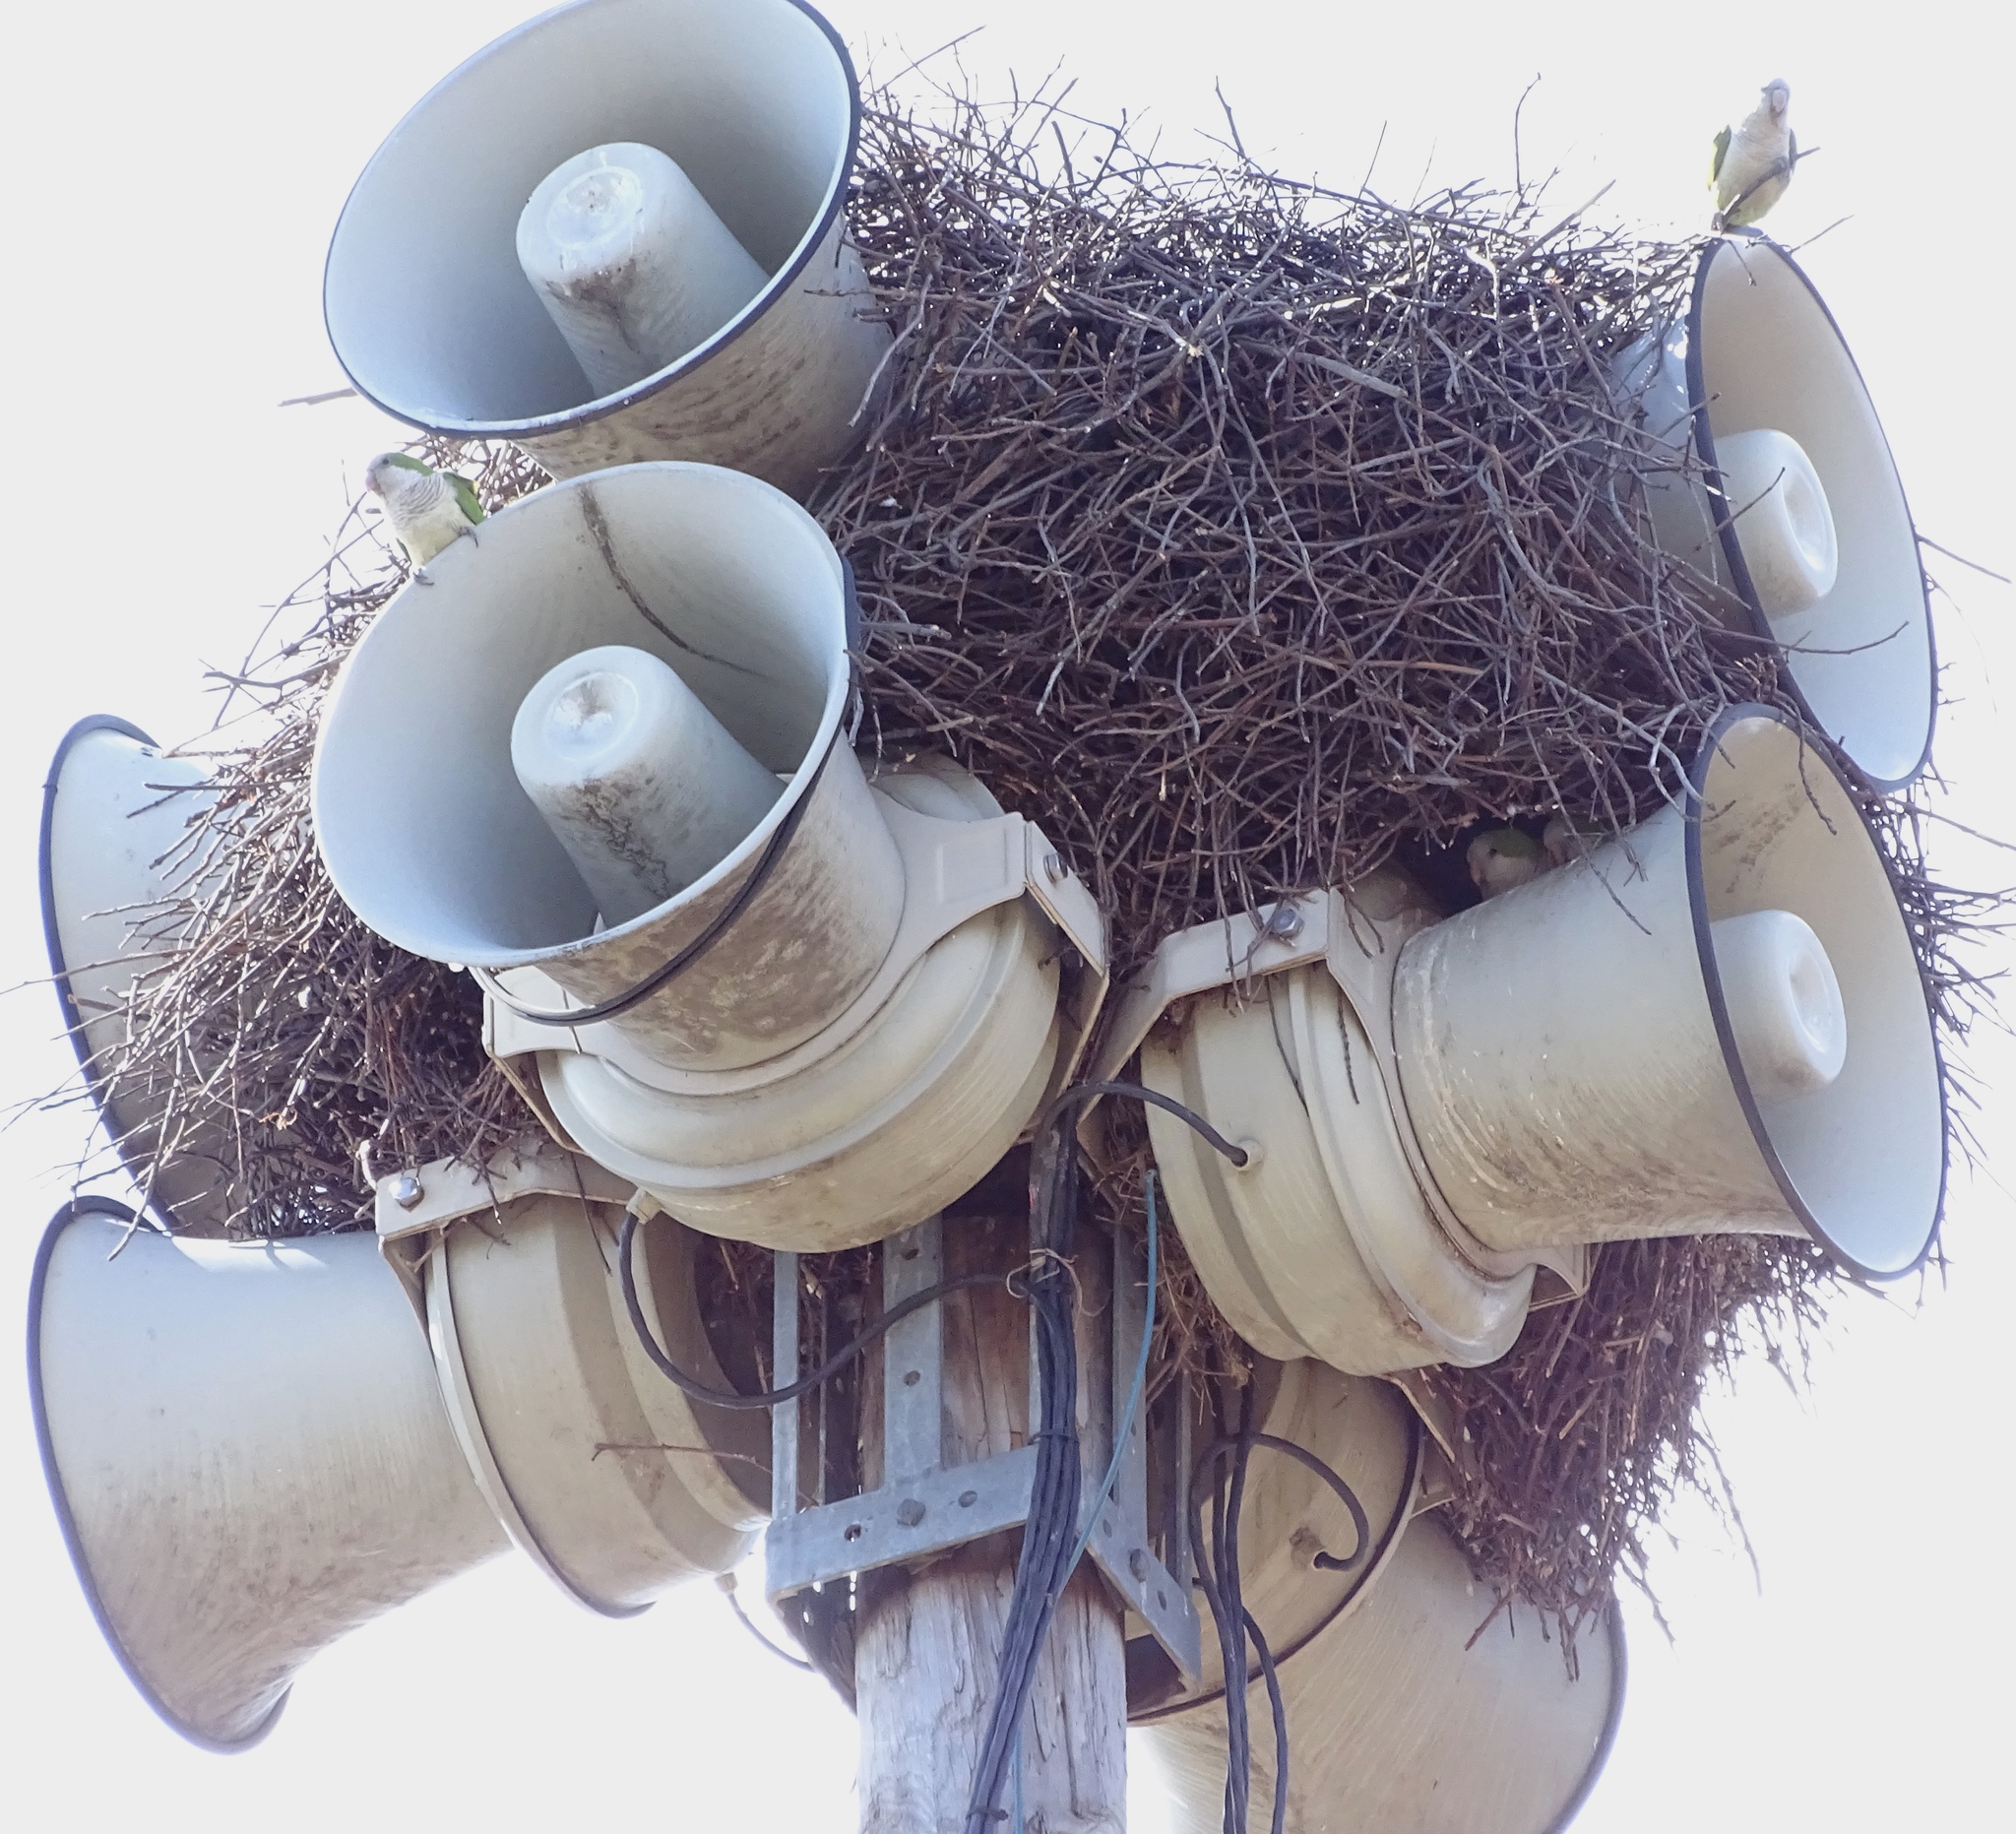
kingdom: Animalia
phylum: Chordata
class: Aves
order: Psittaciformes
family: Psittacidae
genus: Myiopsitta
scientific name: Myiopsitta monachus
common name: Monk parakeet
